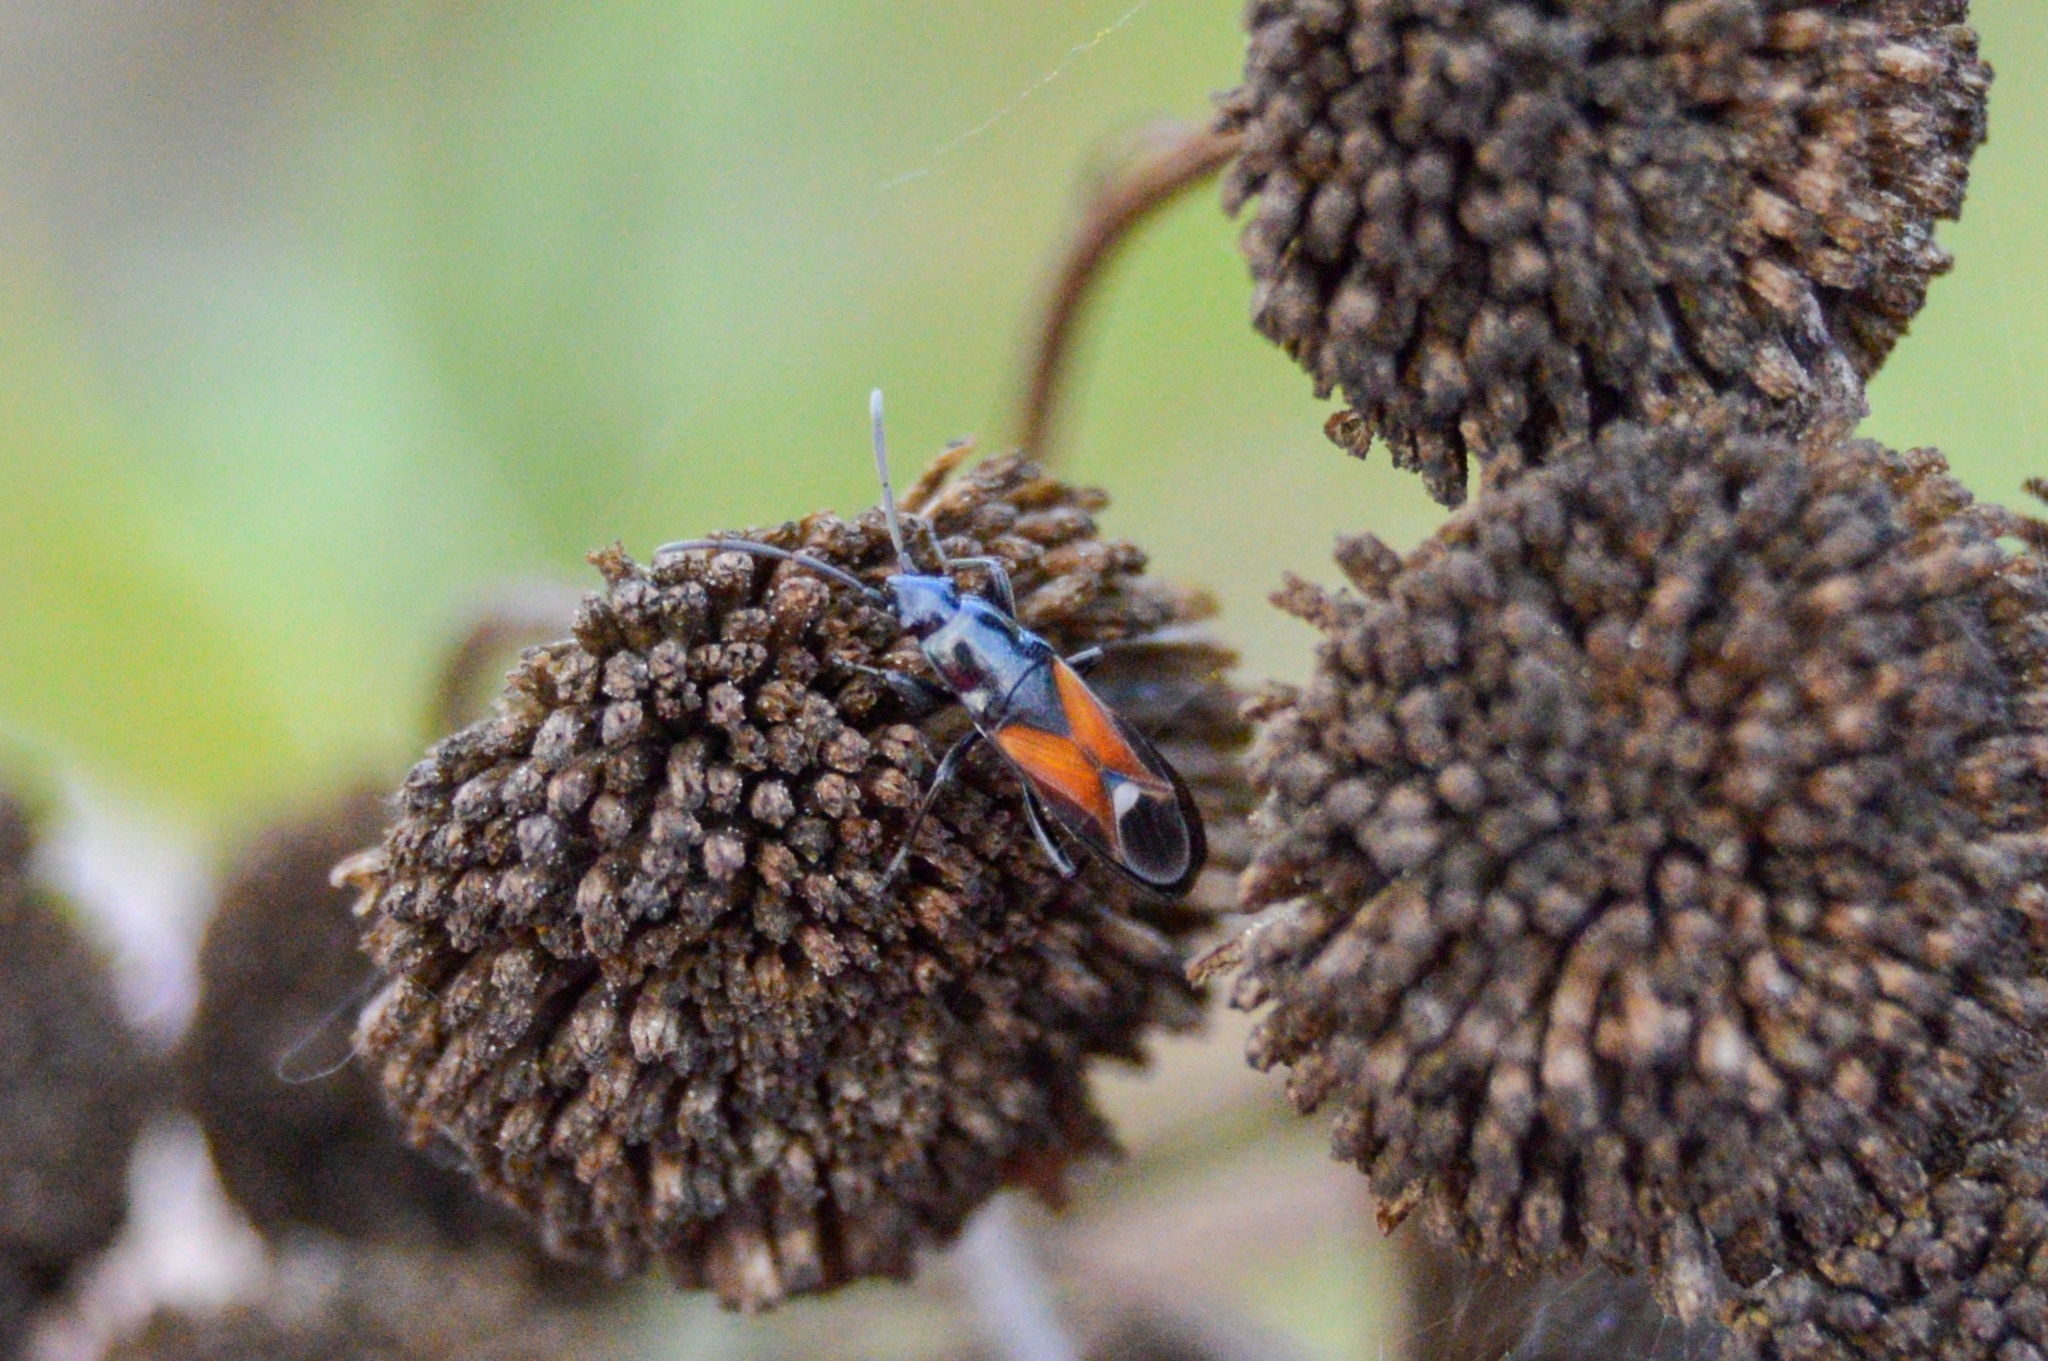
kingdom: Animalia
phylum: Arthropoda
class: Insecta
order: Hemiptera
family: Rhyparochromidae
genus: Pterotmetus
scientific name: Pterotmetus staphyliniformis
